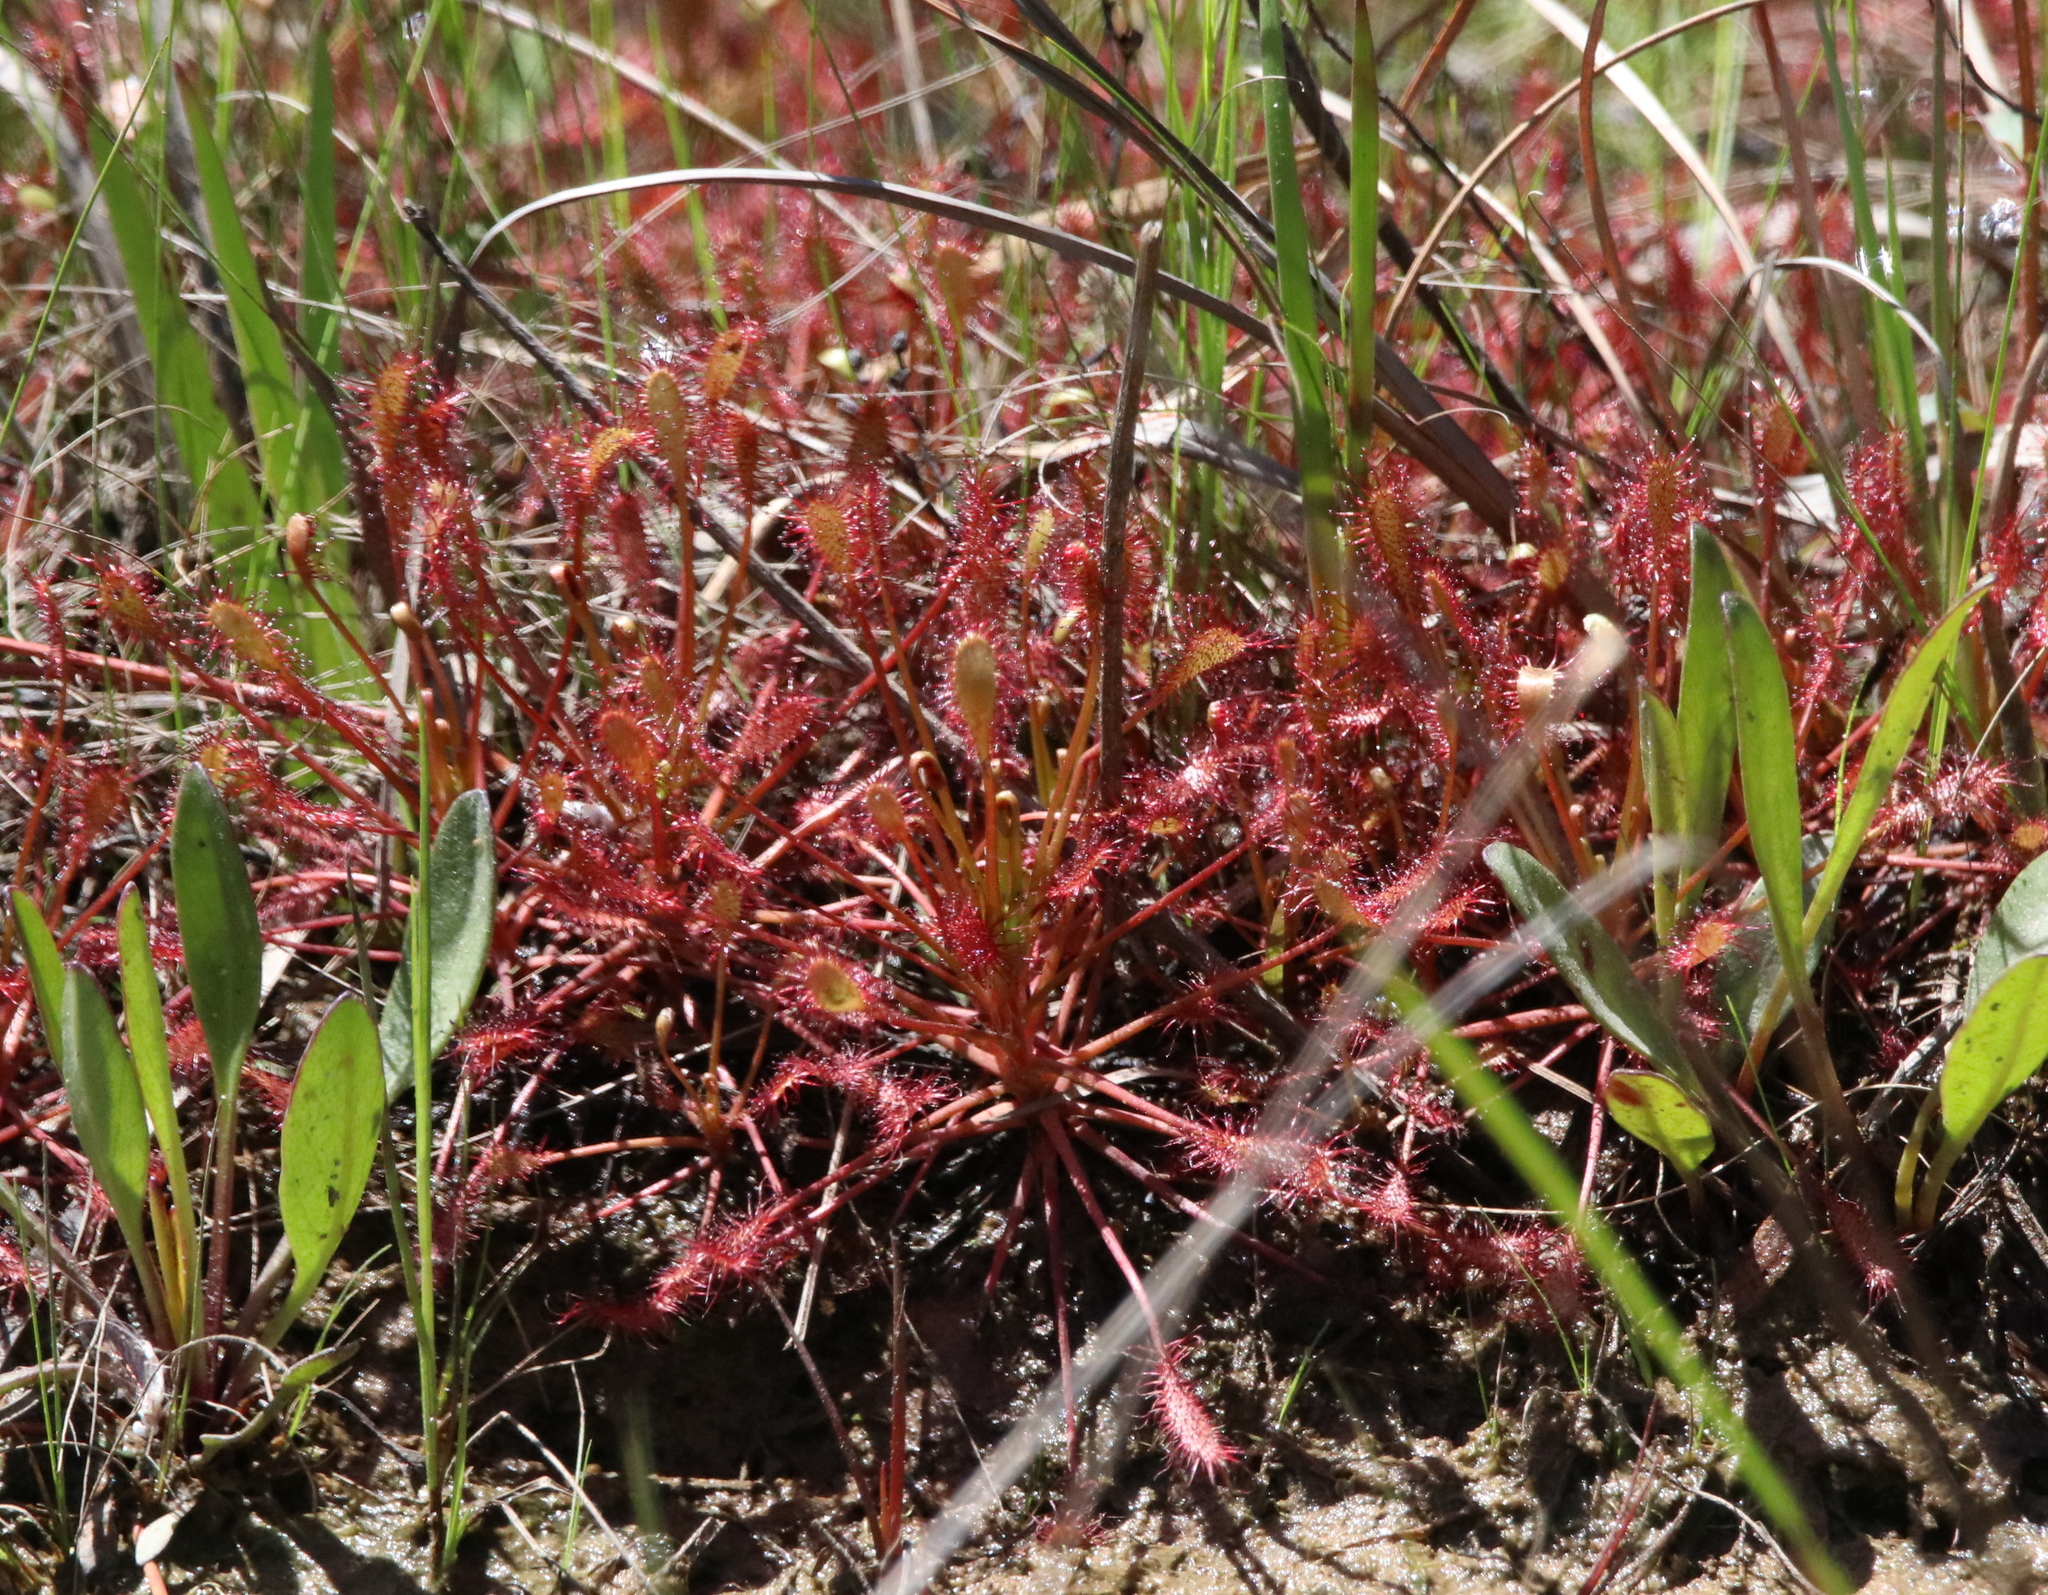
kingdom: Plantae
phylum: Tracheophyta
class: Magnoliopsida
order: Caryophyllales
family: Droseraceae
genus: Drosera
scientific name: Drosera intermedia
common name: Oblong-leaved sundew
